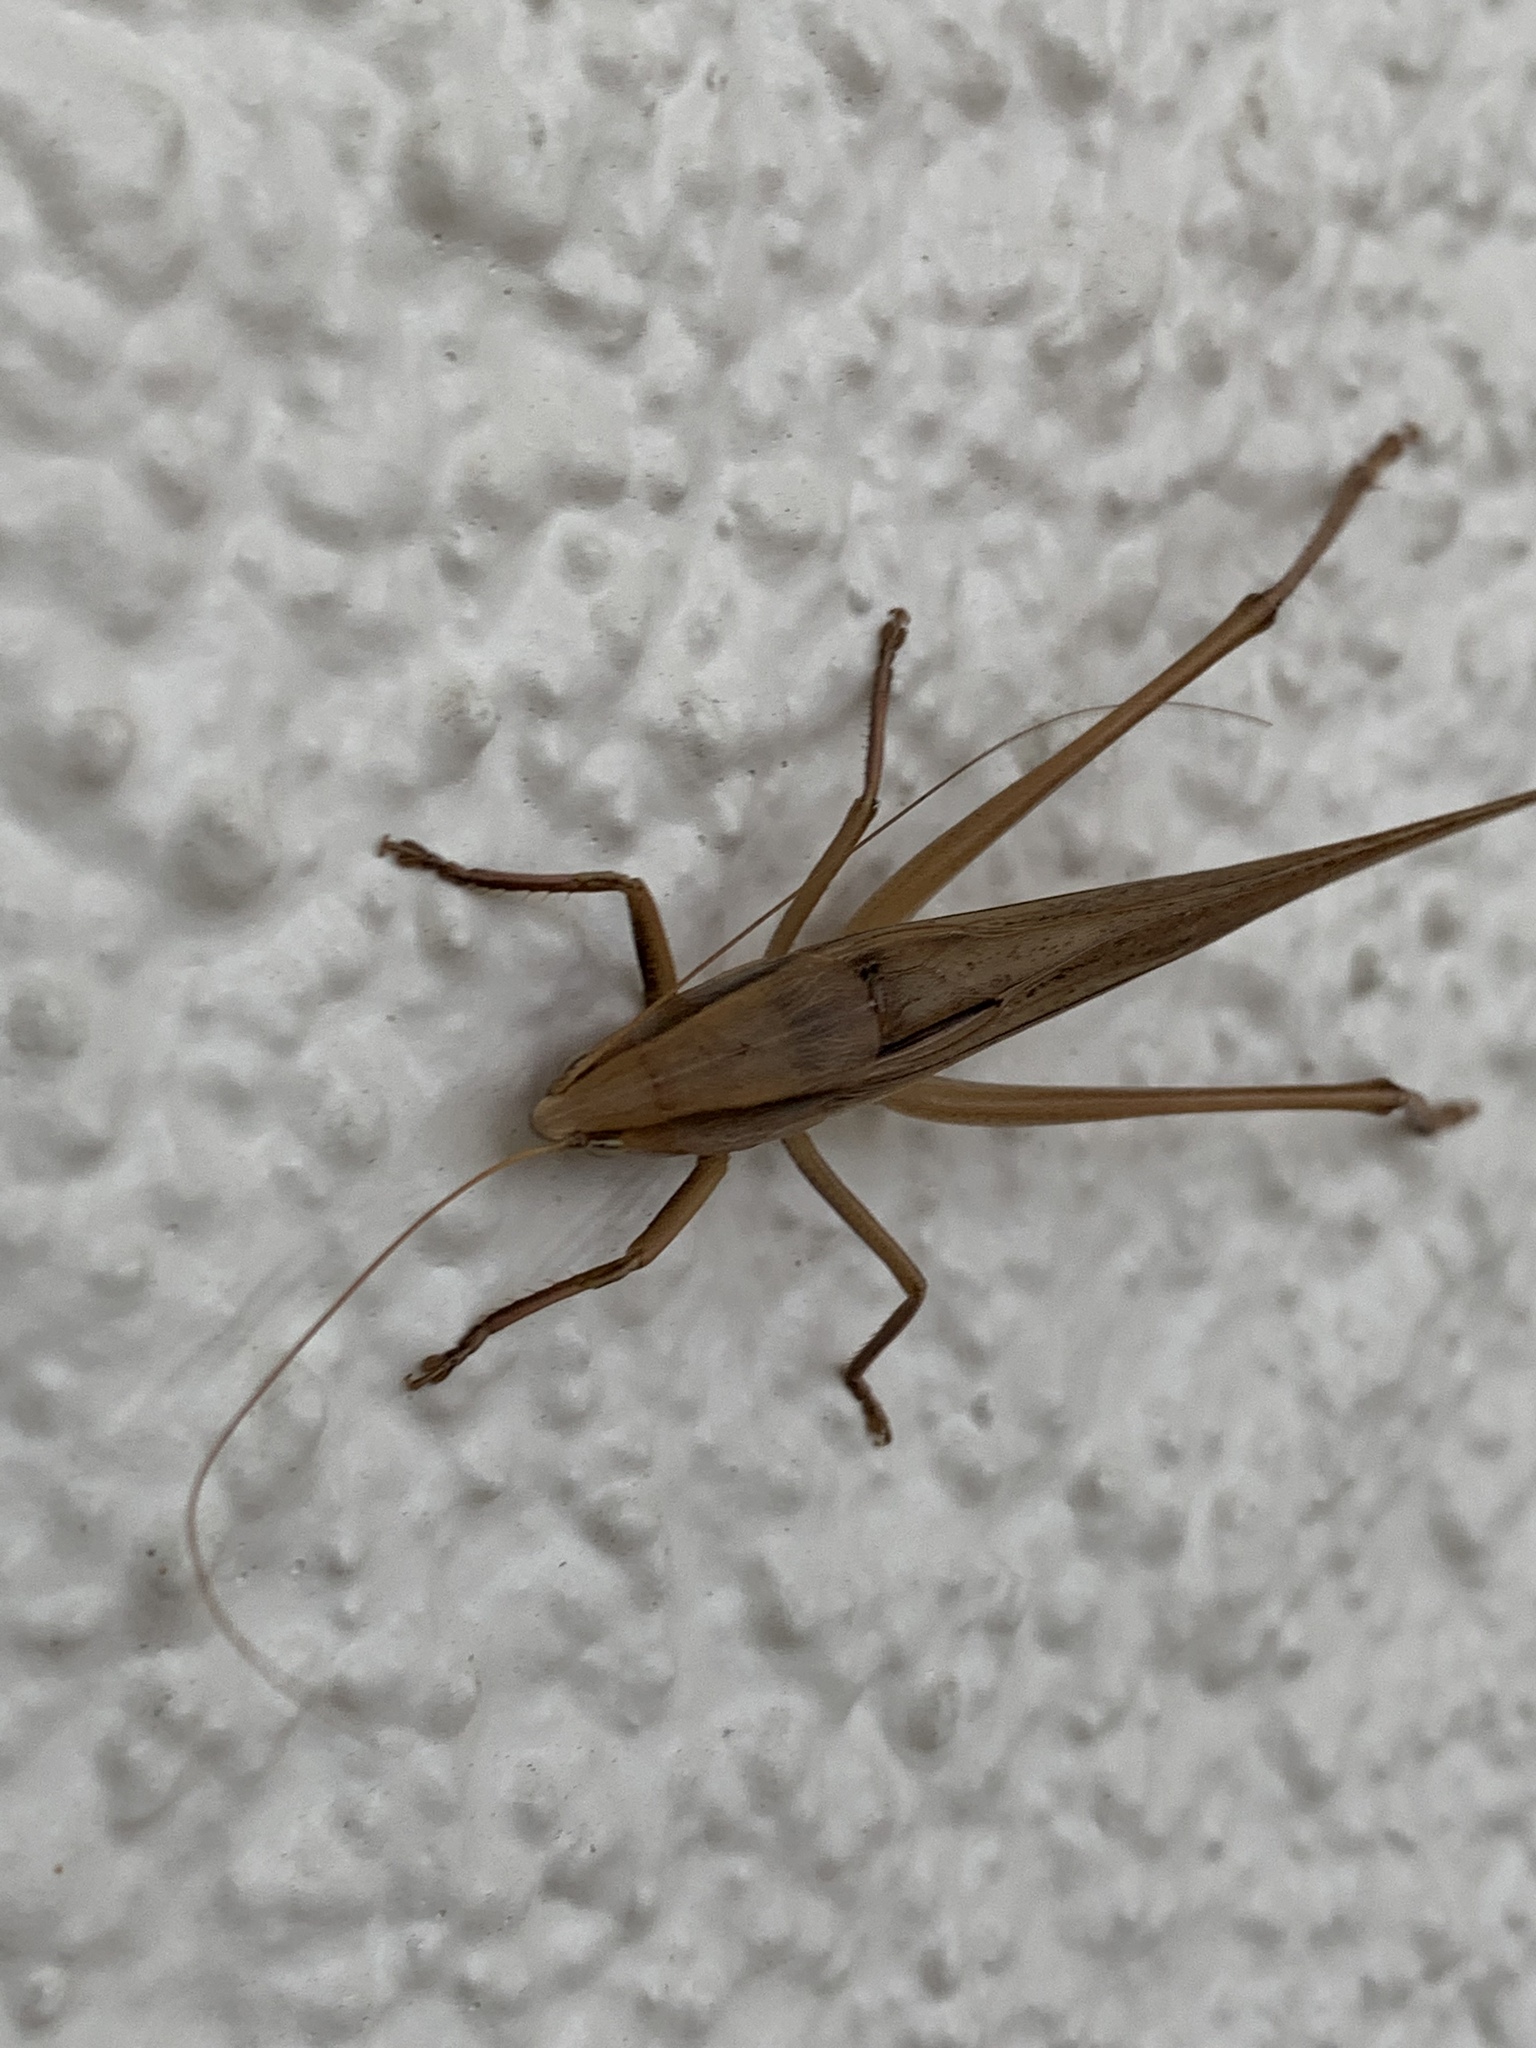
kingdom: Animalia
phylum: Arthropoda
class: Insecta
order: Orthoptera
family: Tettigoniidae
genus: Neoconocephalus
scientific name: Neoconocephalus triops
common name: Broad-tipped conehead
